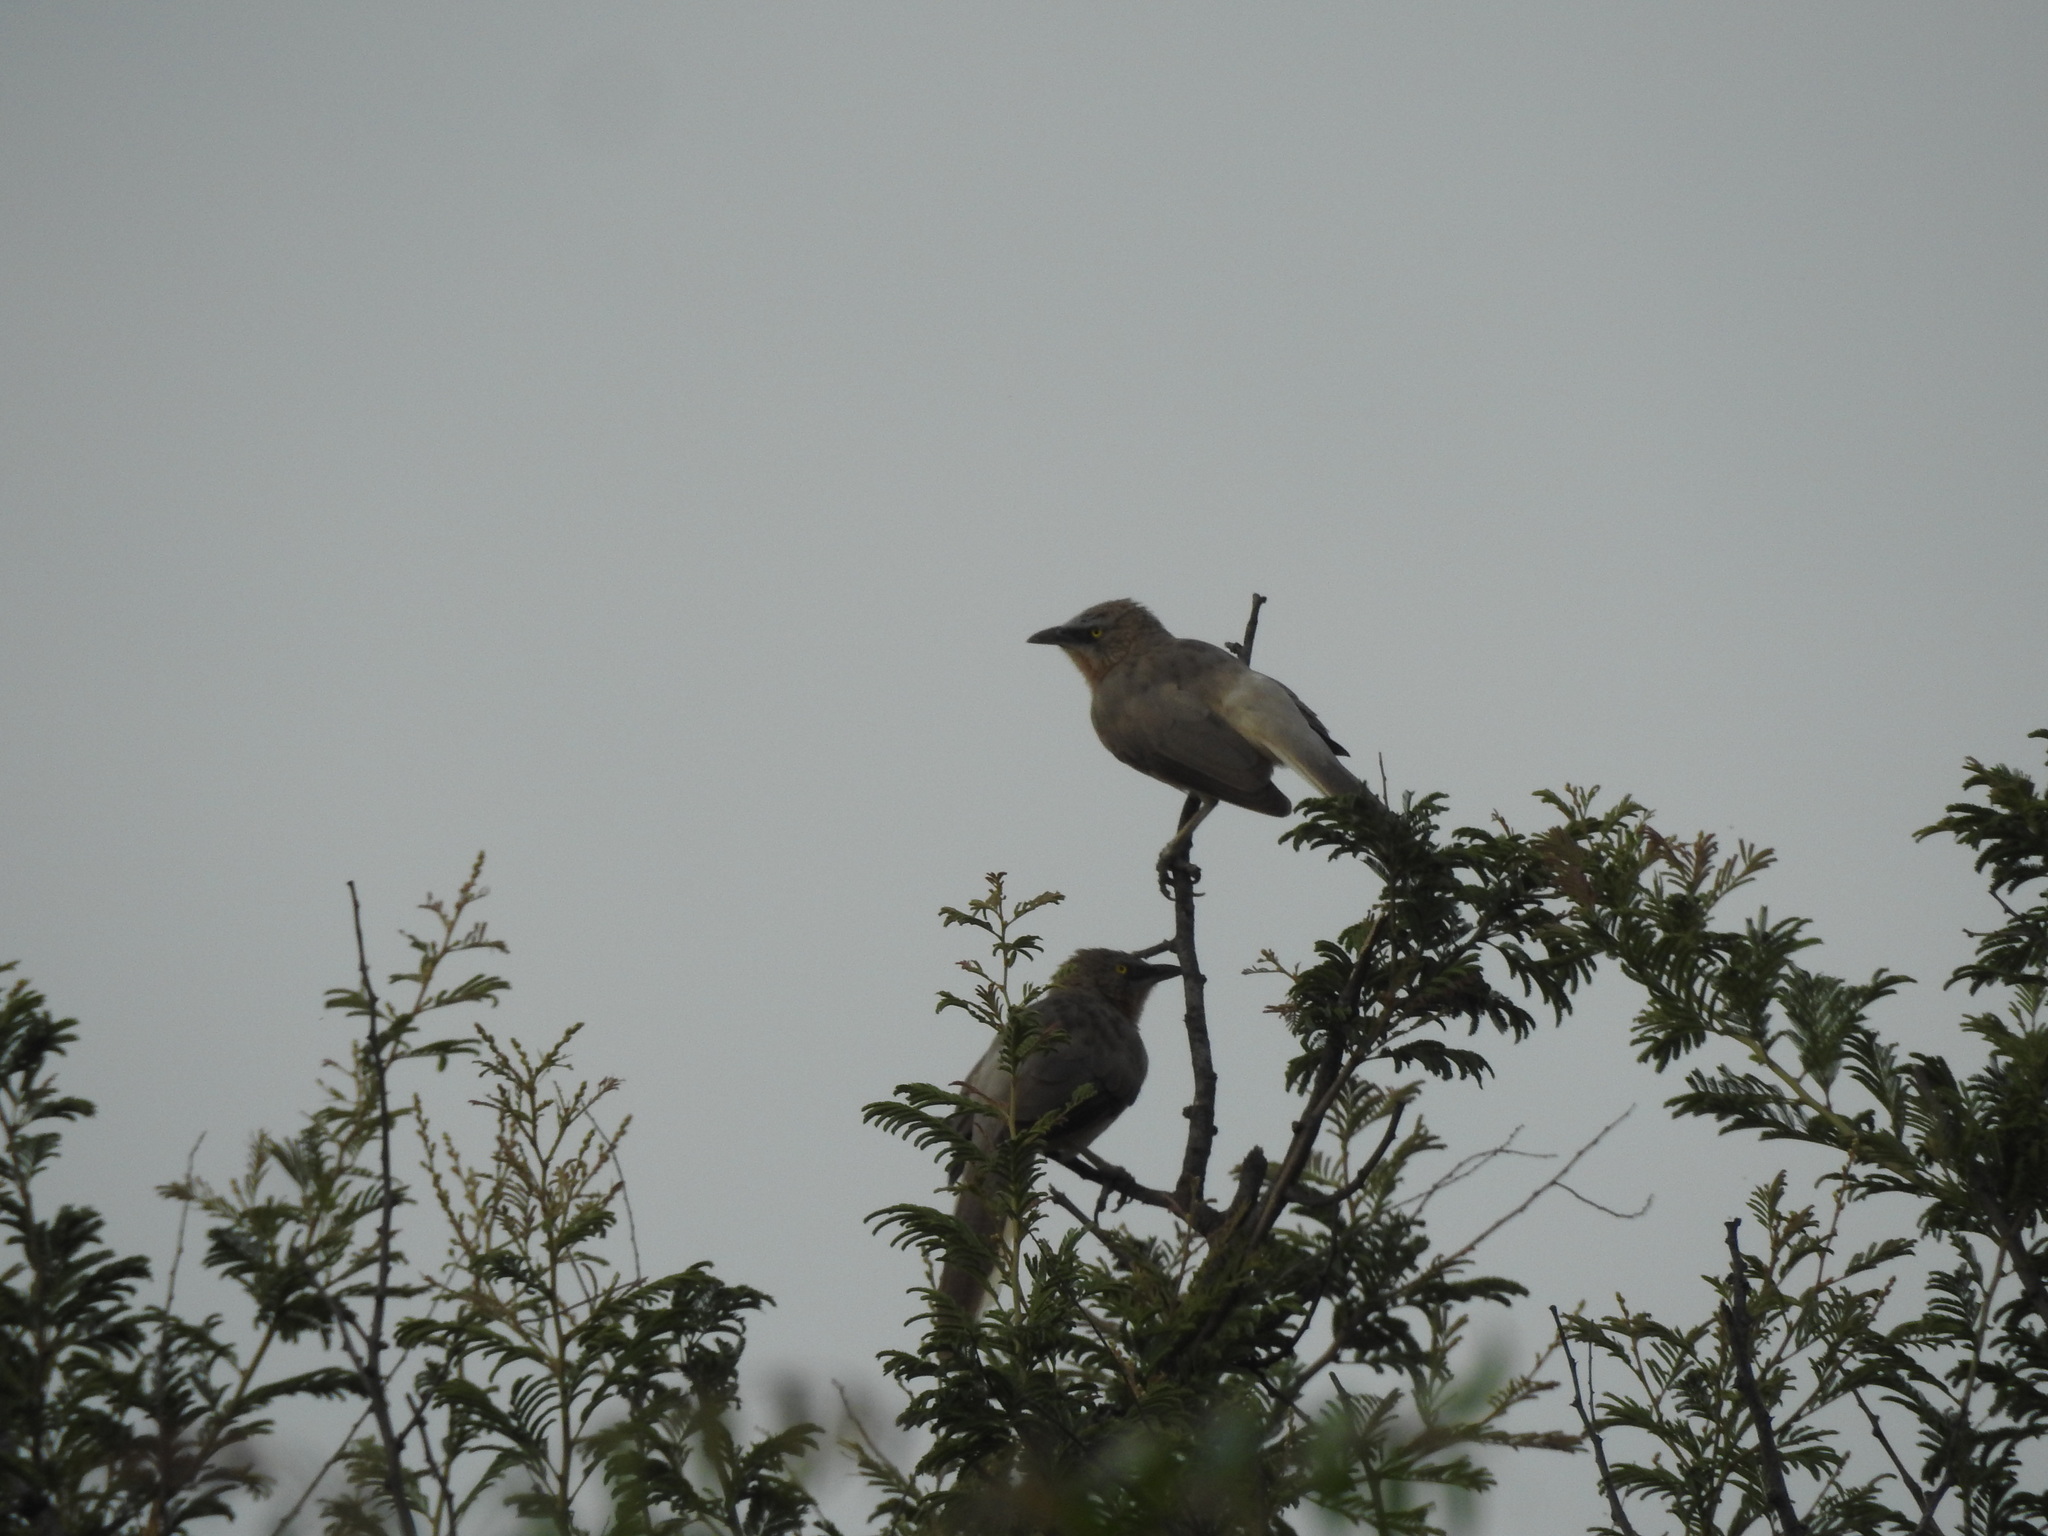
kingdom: Animalia
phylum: Chordata
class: Aves
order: Passeriformes
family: Leiothrichidae
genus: Turdoides
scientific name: Turdoides malcolmi
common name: Large grey babbler
